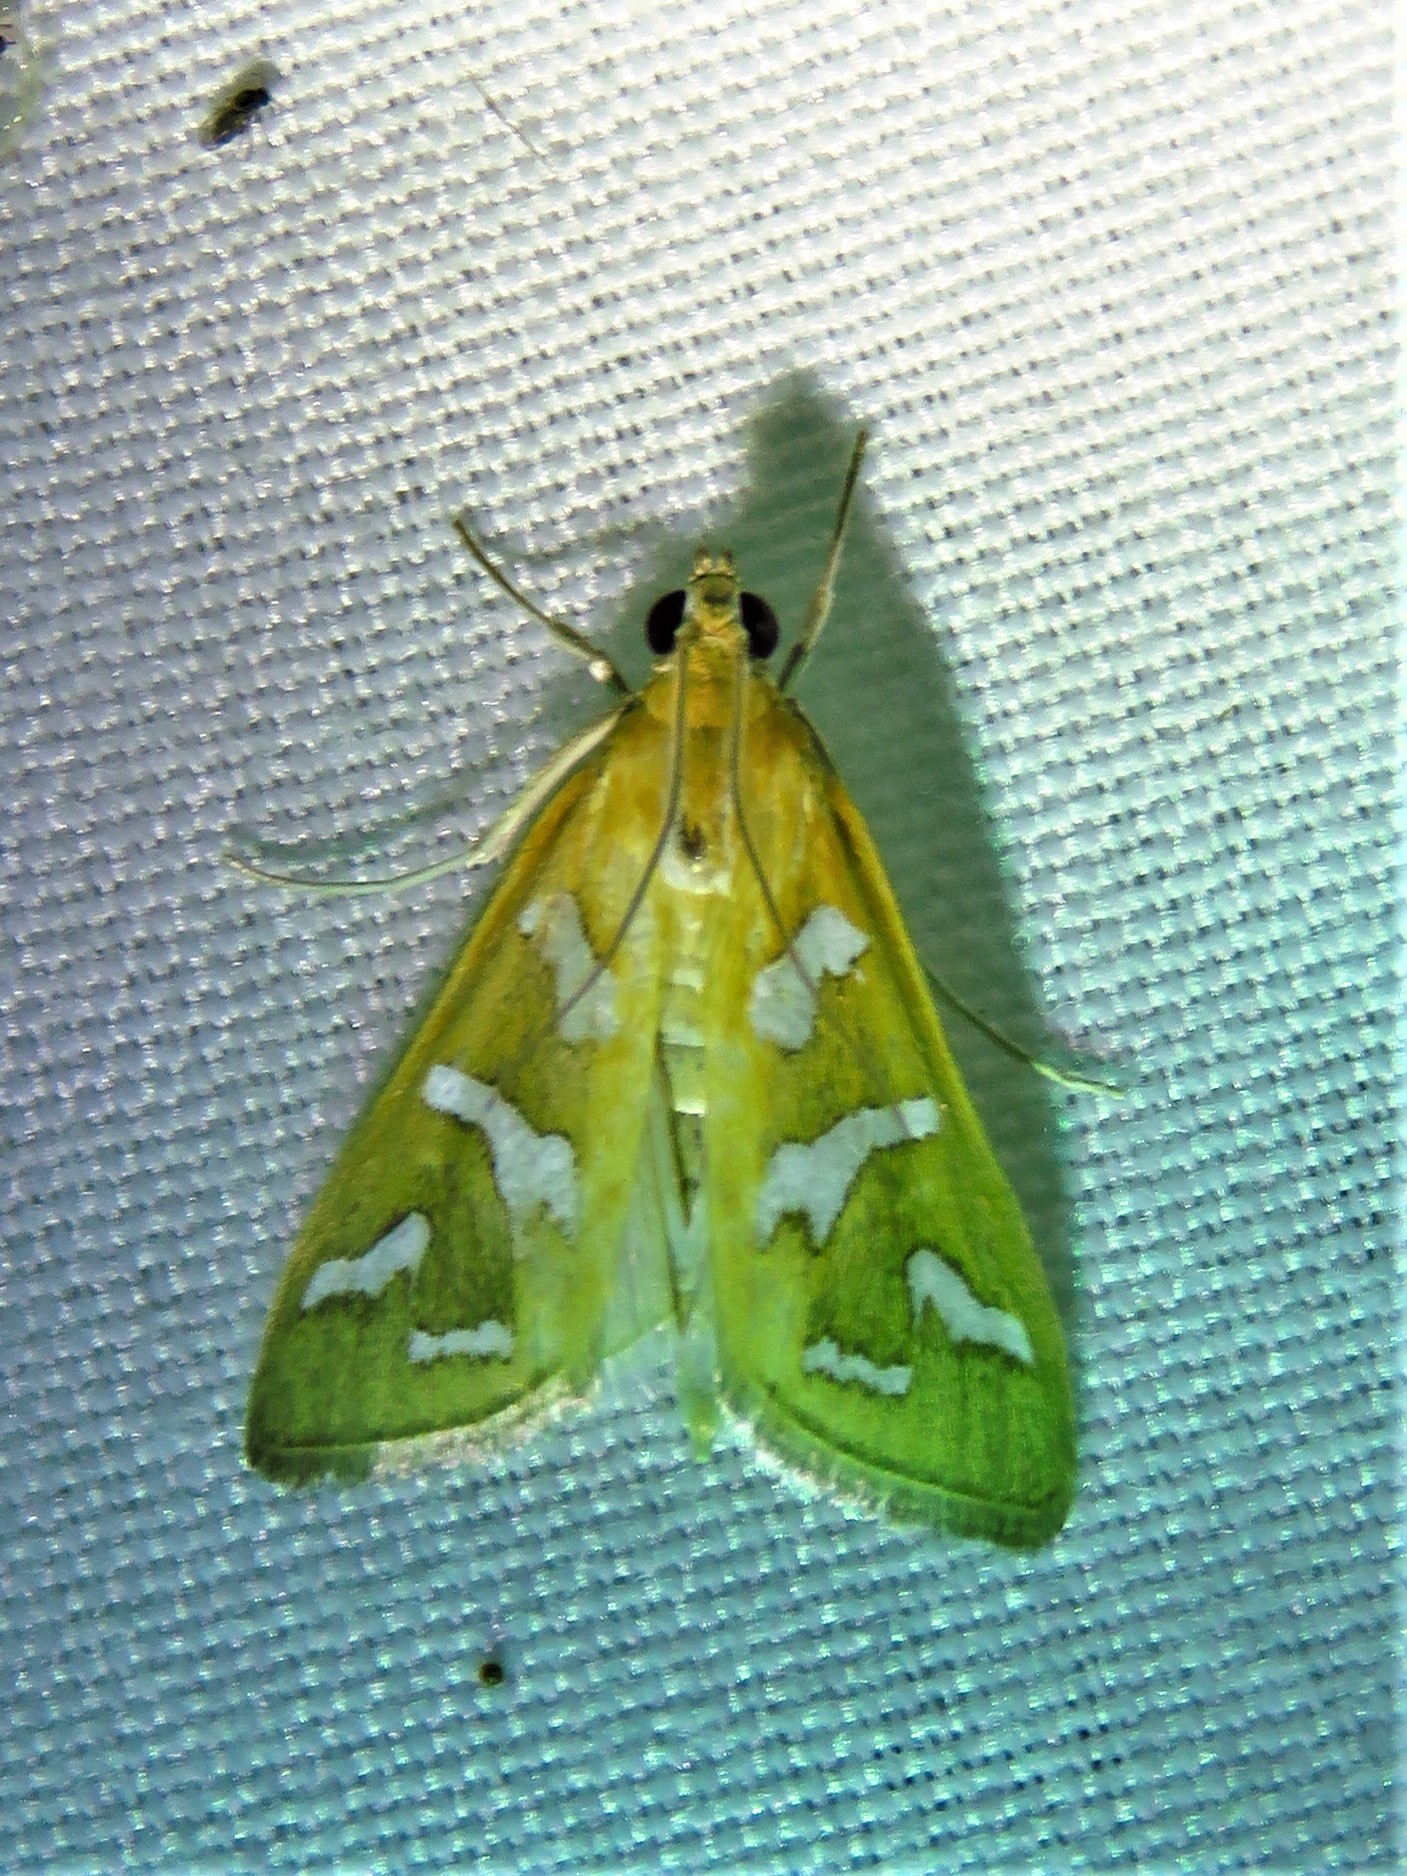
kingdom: Animalia
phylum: Arthropoda
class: Insecta
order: Lepidoptera
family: Crambidae
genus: Diastictis
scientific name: Diastictis fracturalis
